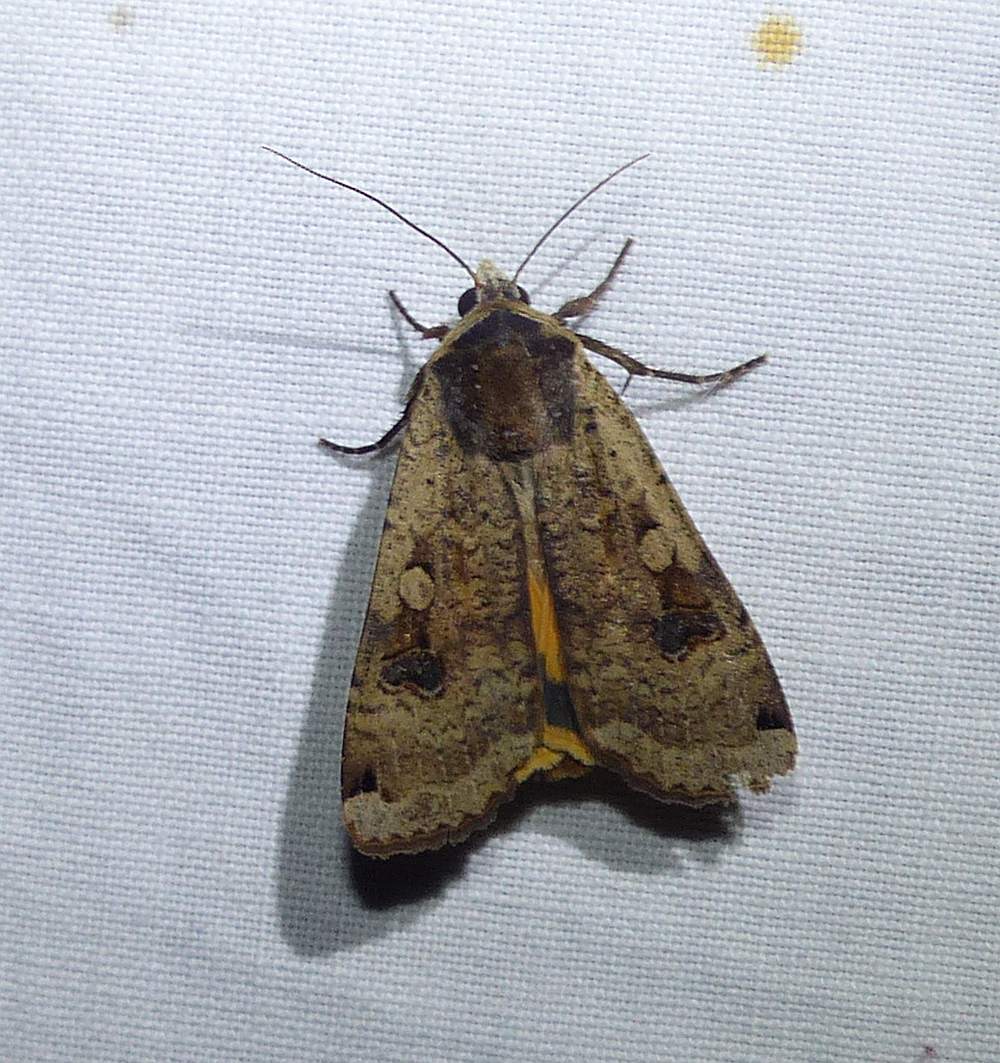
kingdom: Animalia
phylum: Arthropoda
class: Insecta
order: Lepidoptera
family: Noctuidae
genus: Noctua
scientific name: Noctua pronuba
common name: Large yellow underwing
